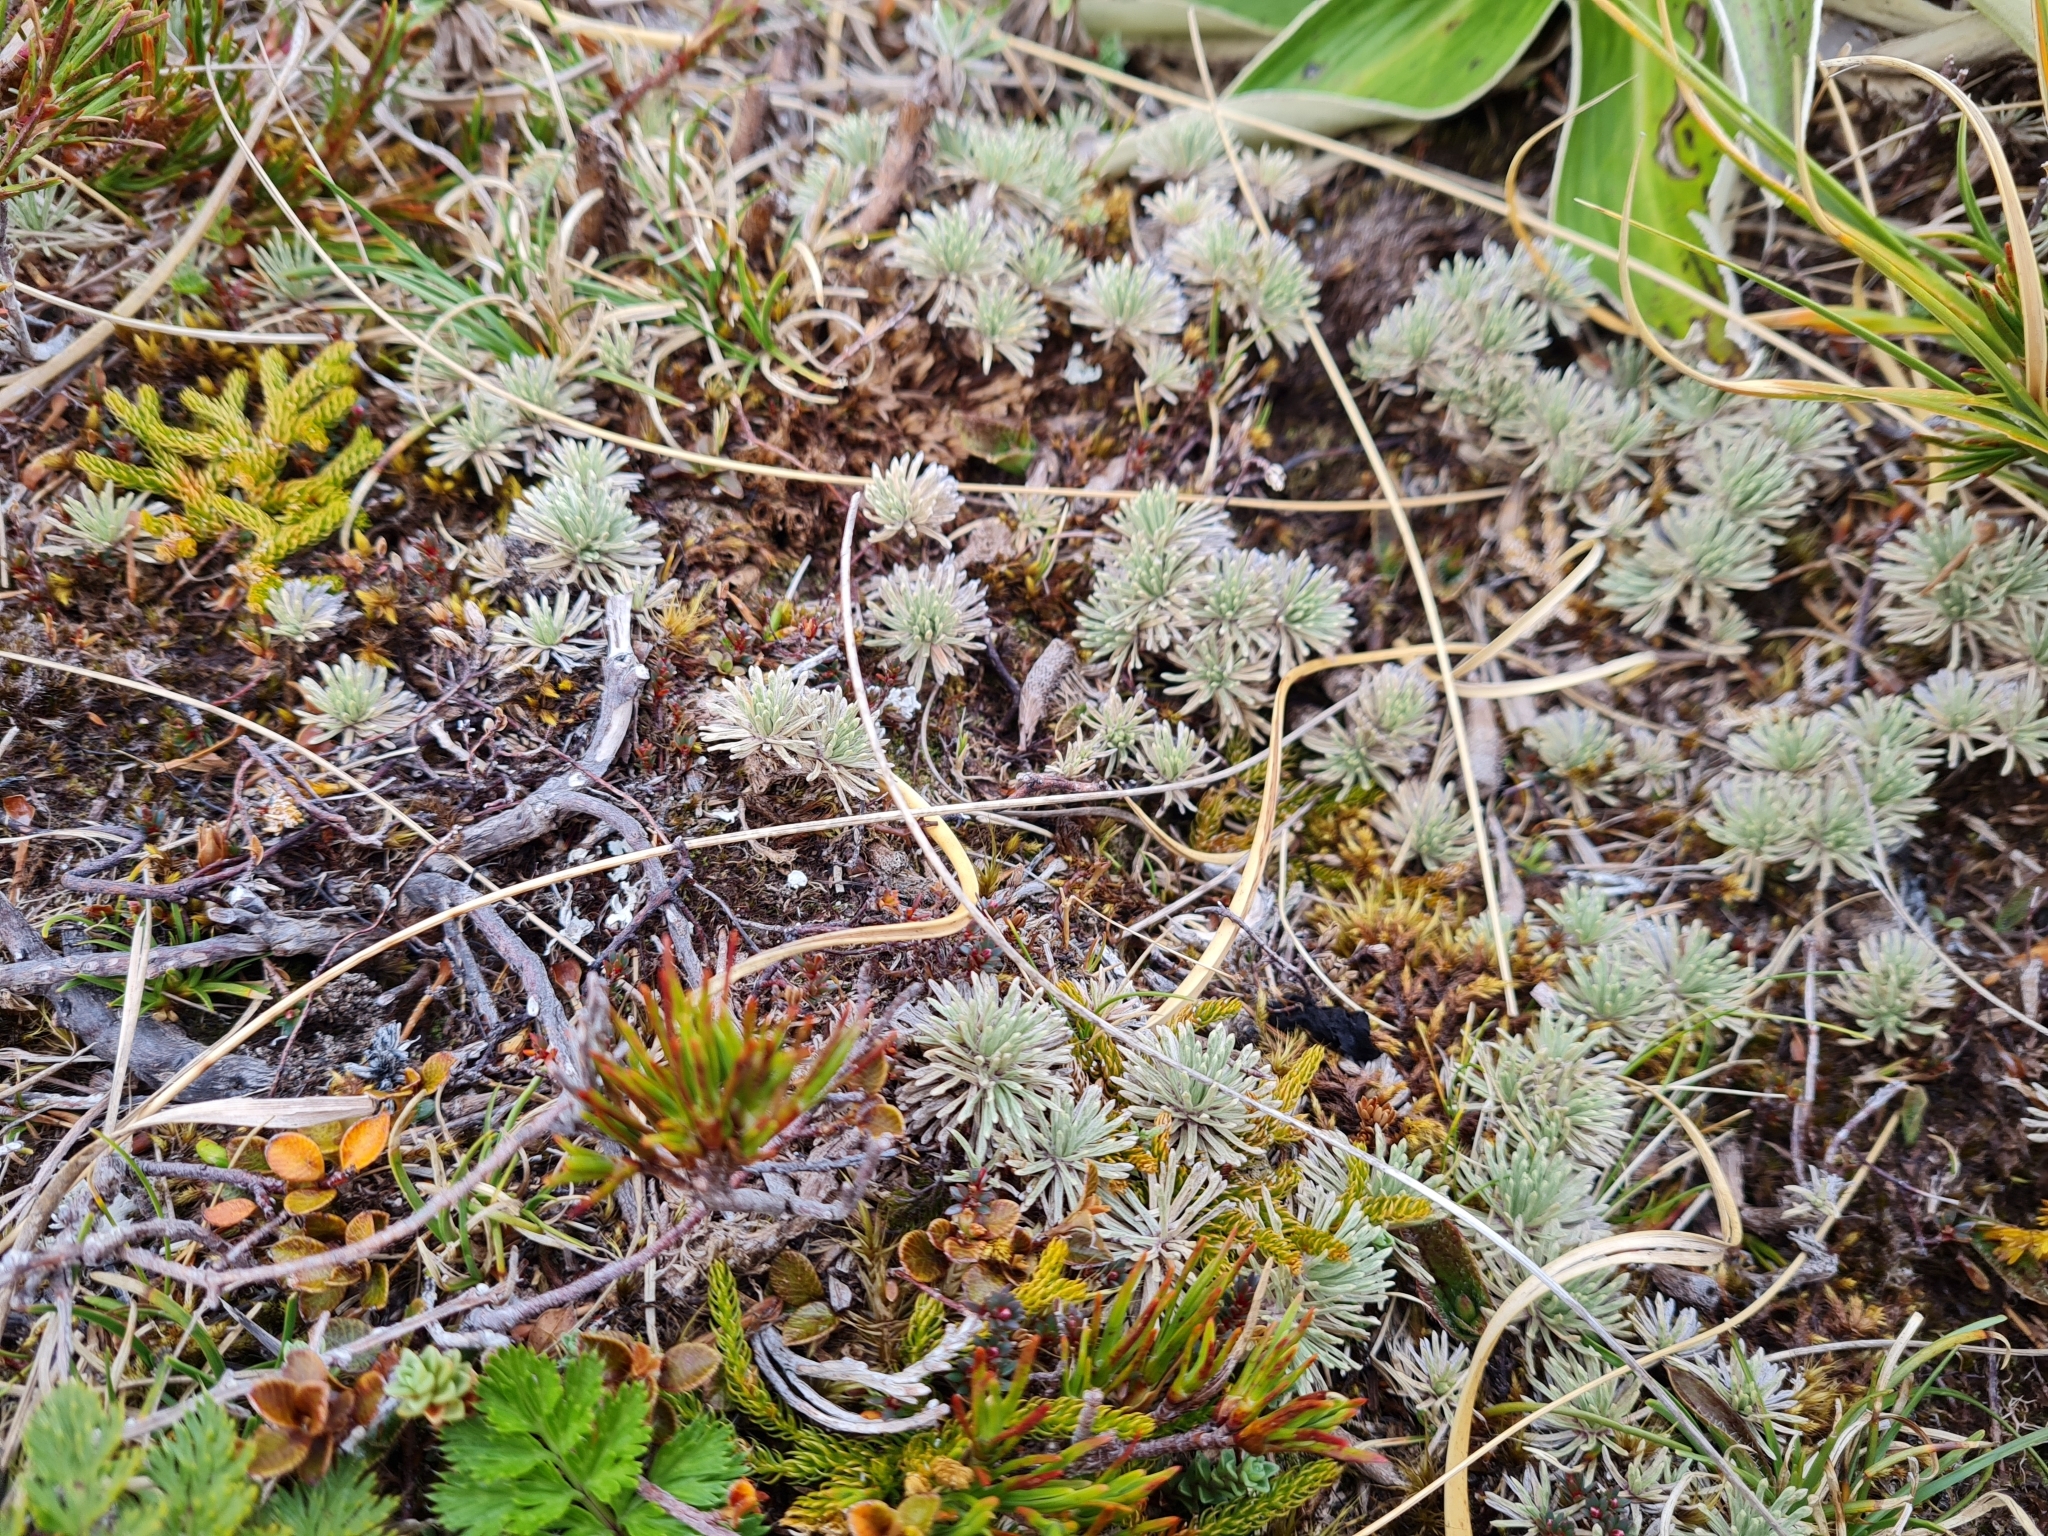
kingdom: Plantae
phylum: Tracheophyta
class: Magnoliopsida
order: Asterales
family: Asteraceae
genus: Celmisia
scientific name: Celmisia sessiliflora
